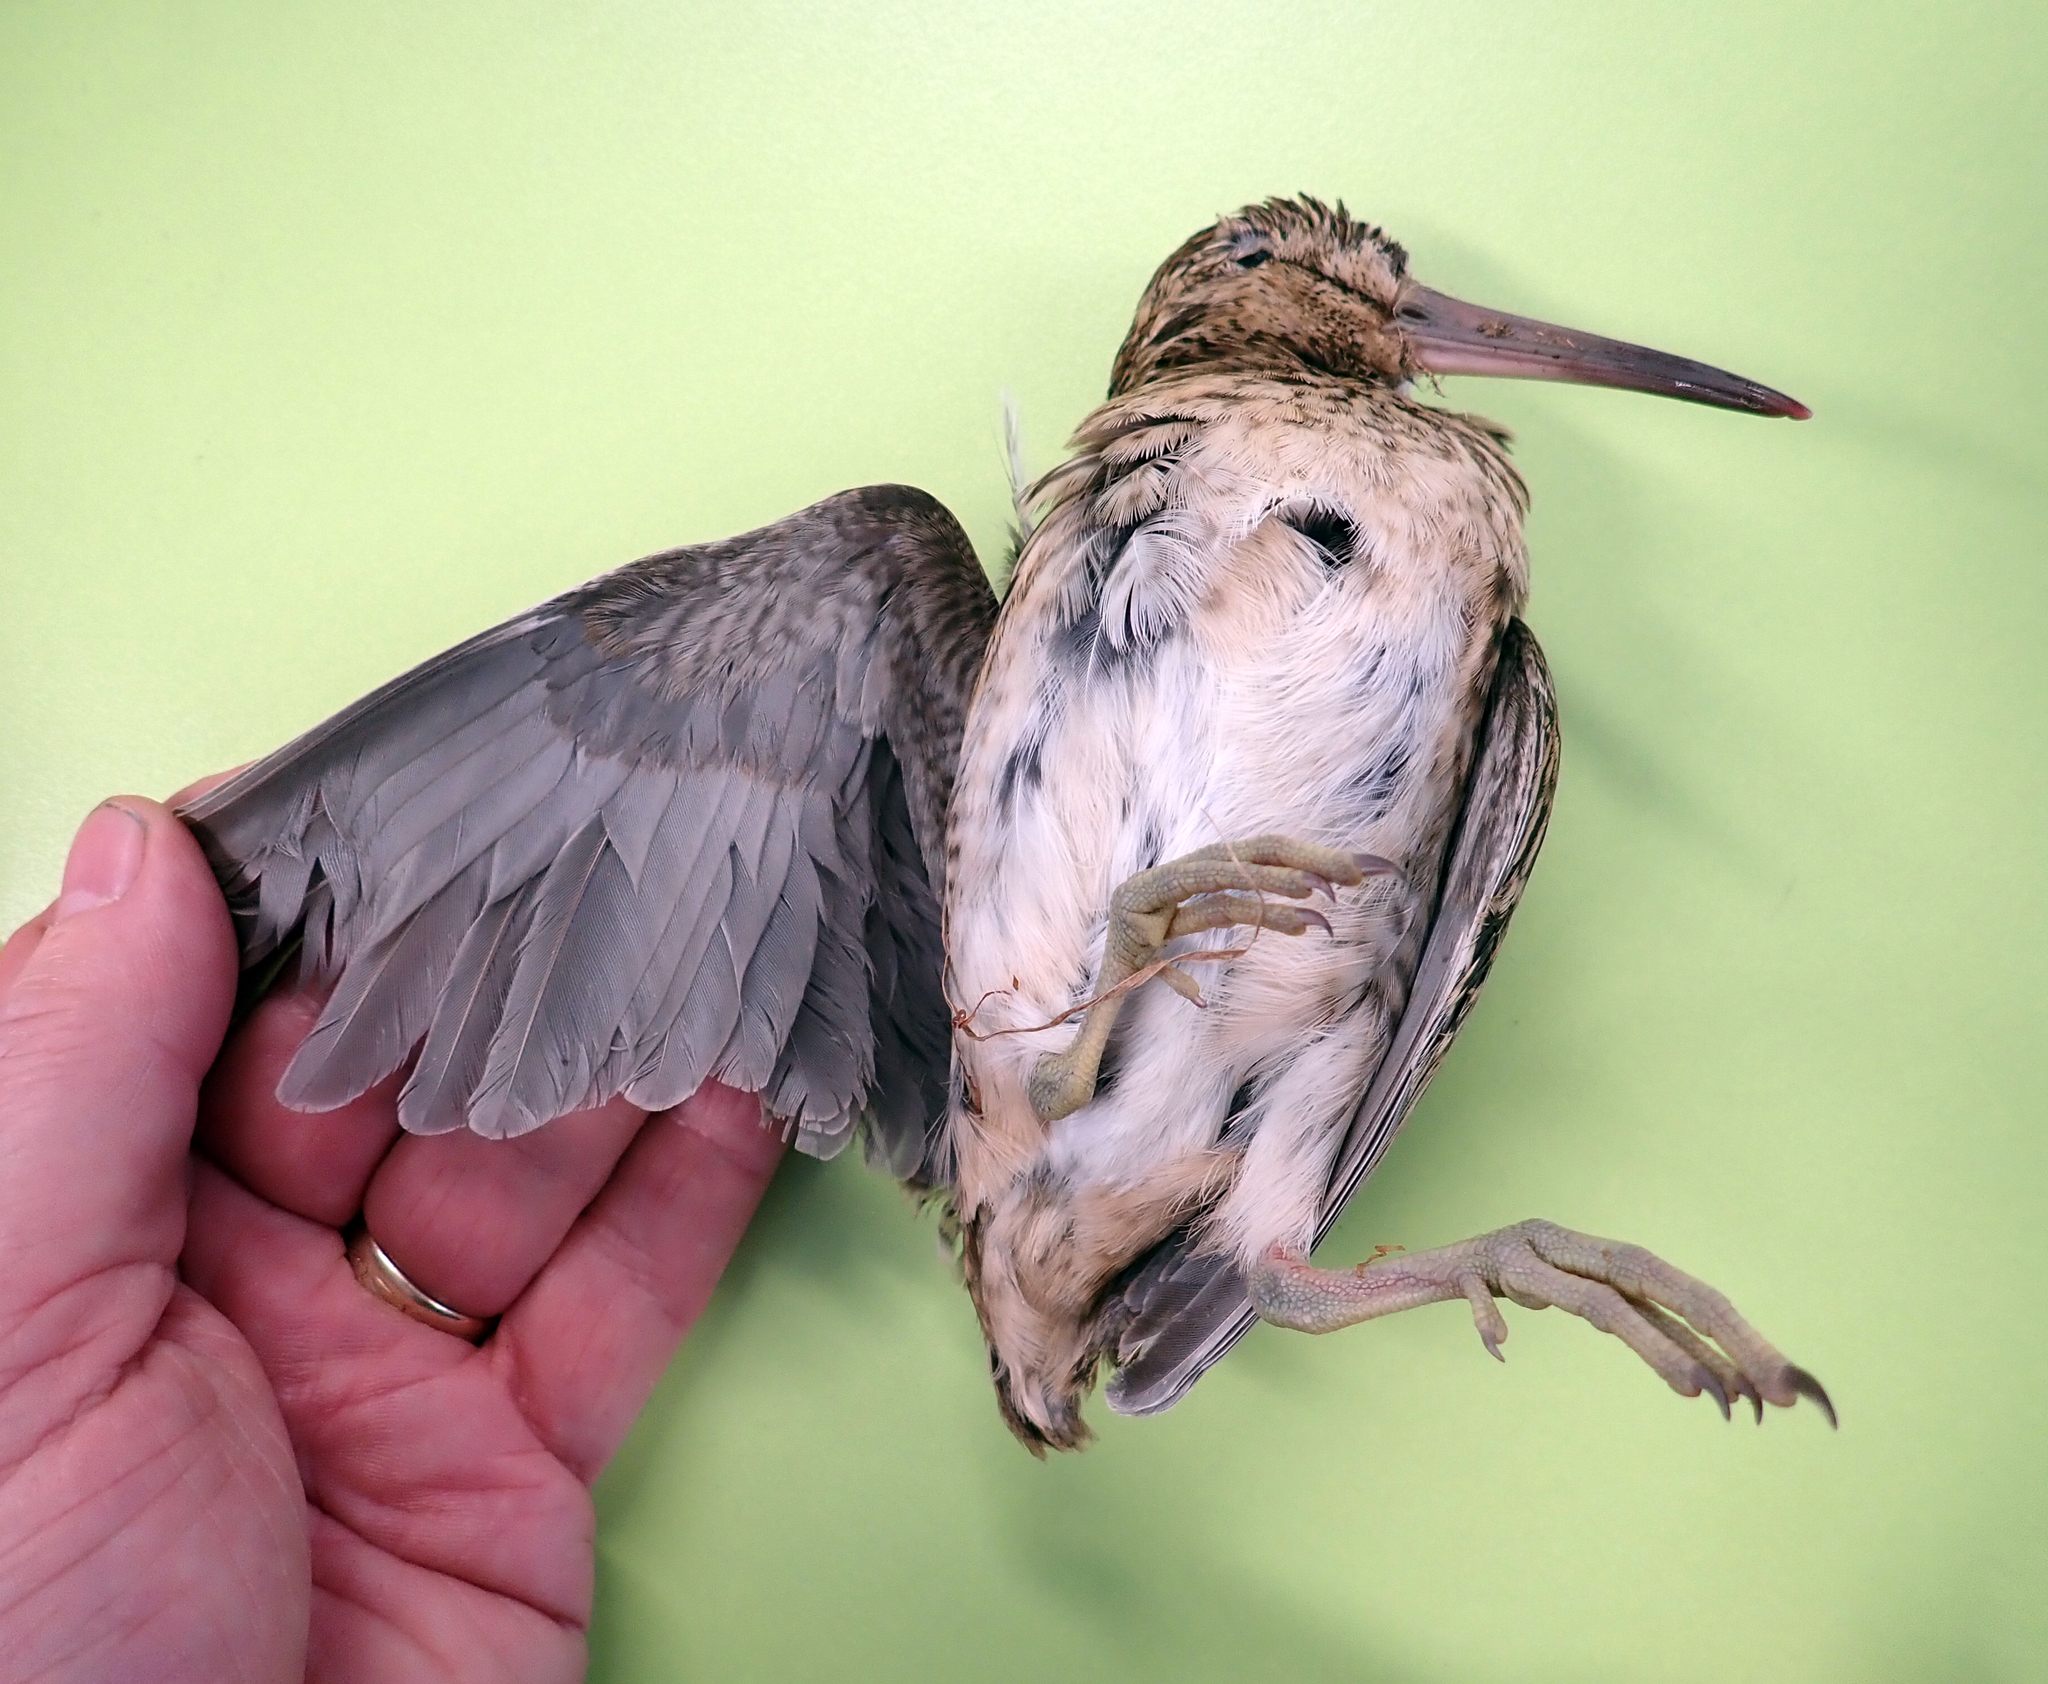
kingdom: Animalia
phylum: Chordata
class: Aves
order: Charadriiformes
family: Scolopacidae
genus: Coenocorypha
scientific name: Coenocorypha pusilla
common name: Chatham snipe
